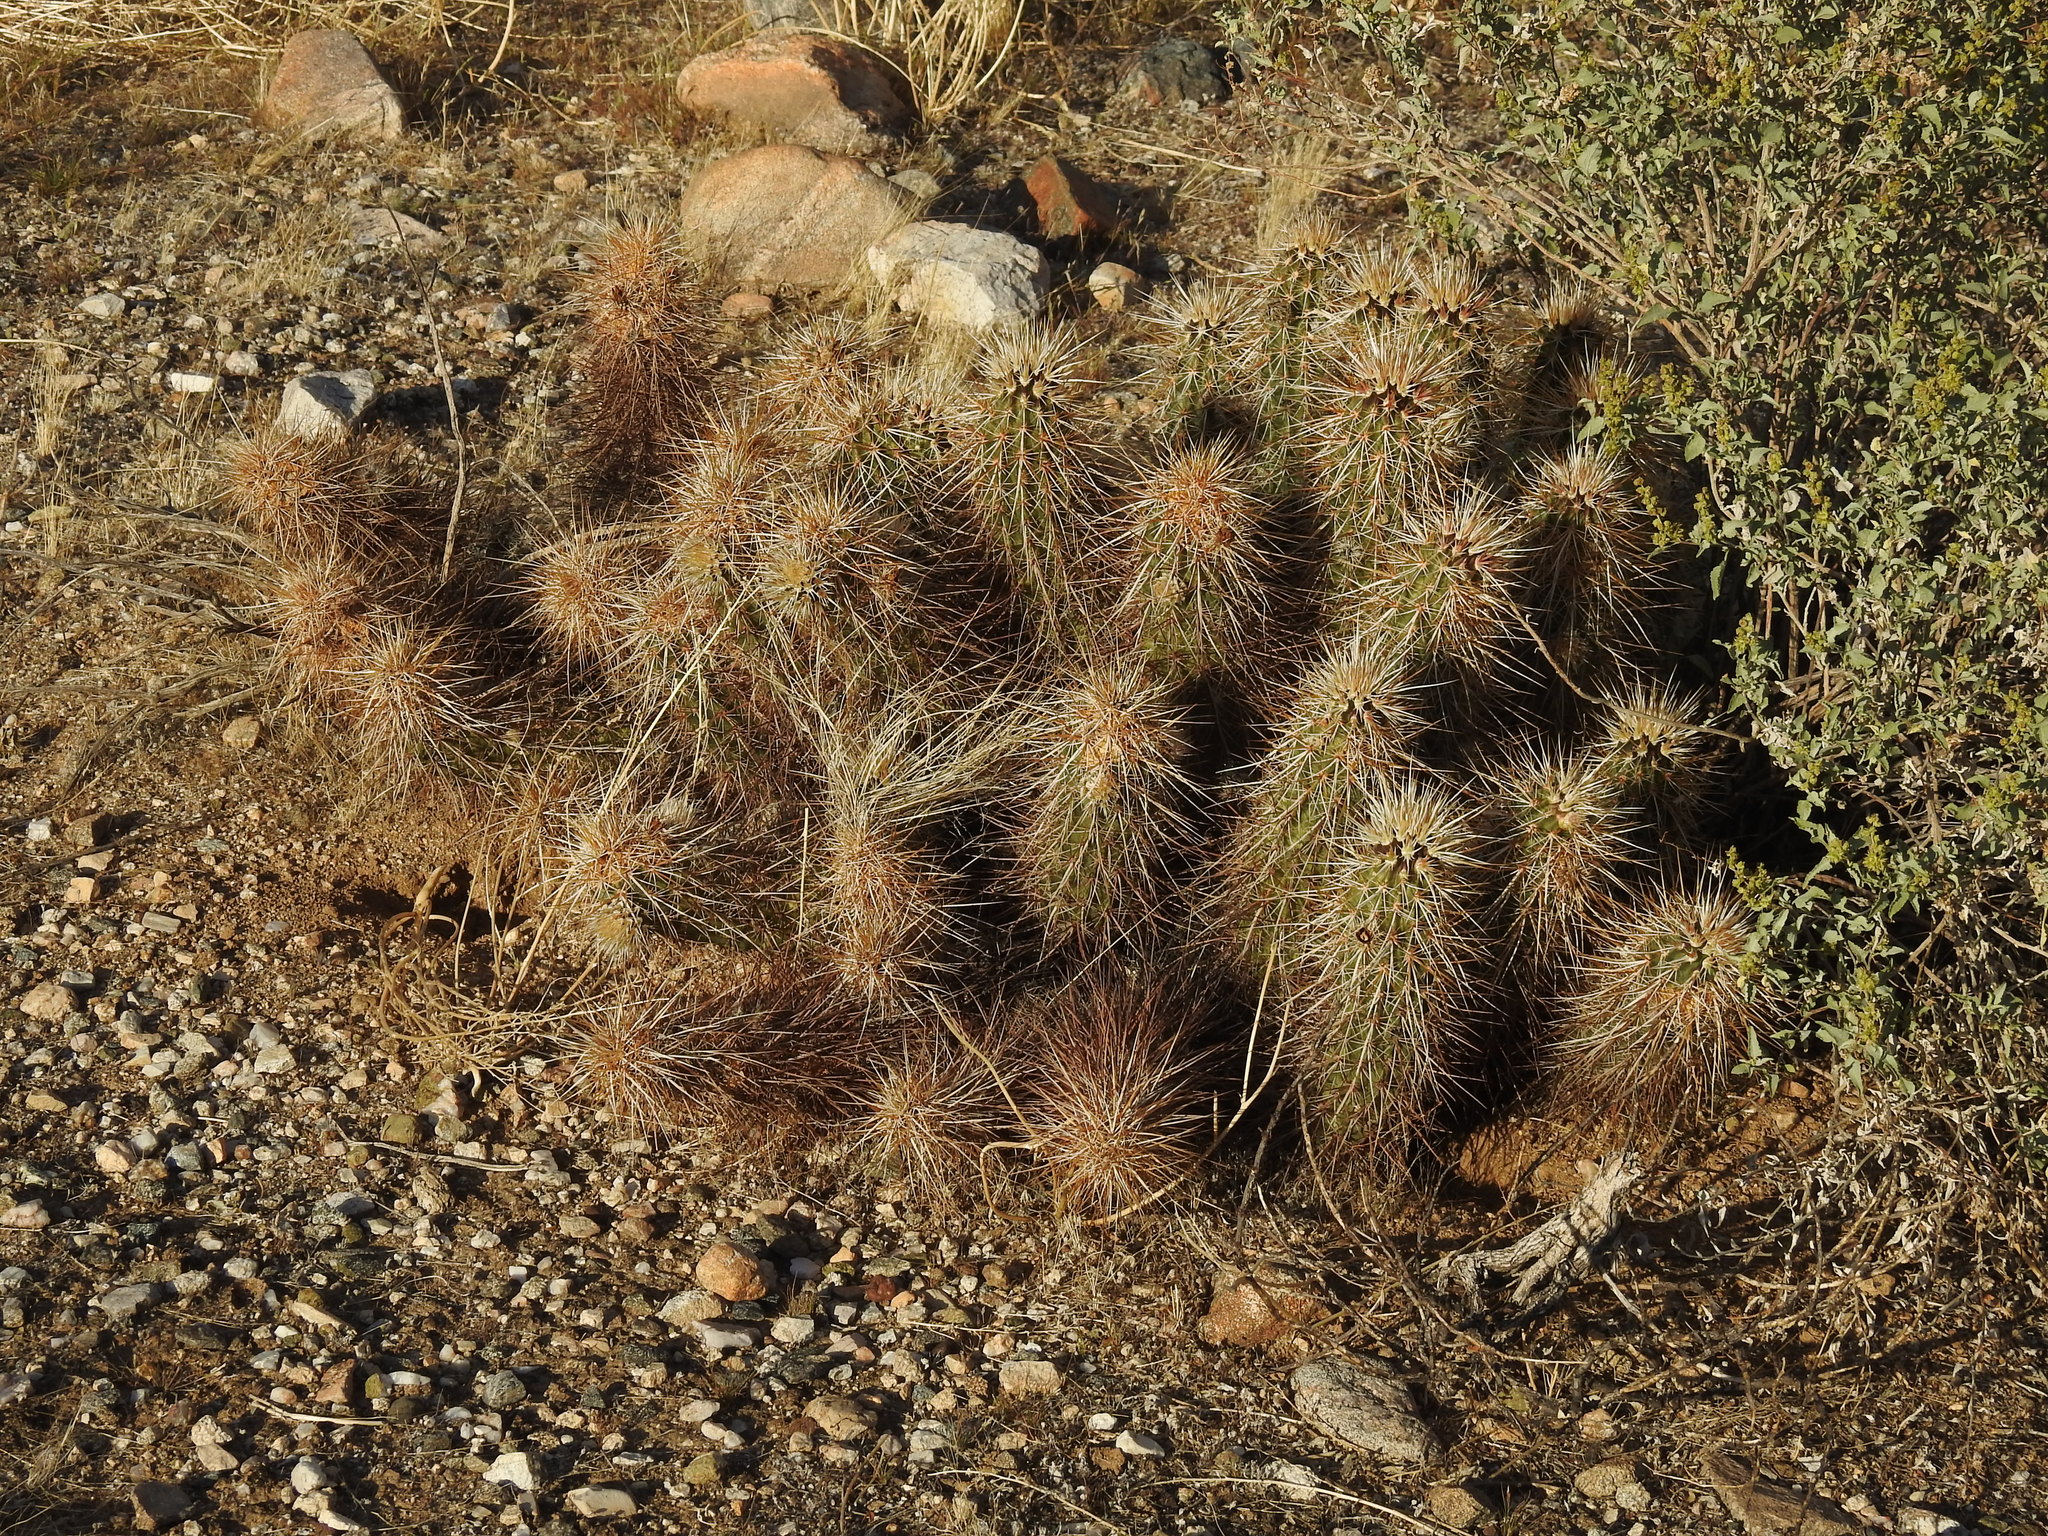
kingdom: Plantae
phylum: Tracheophyta
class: Magnoliopsida
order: Caryophyllales
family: Cactaceae
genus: Echinocereus
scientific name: Echinocereus engelmannii
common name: Engelmann's hedgehog cactus
